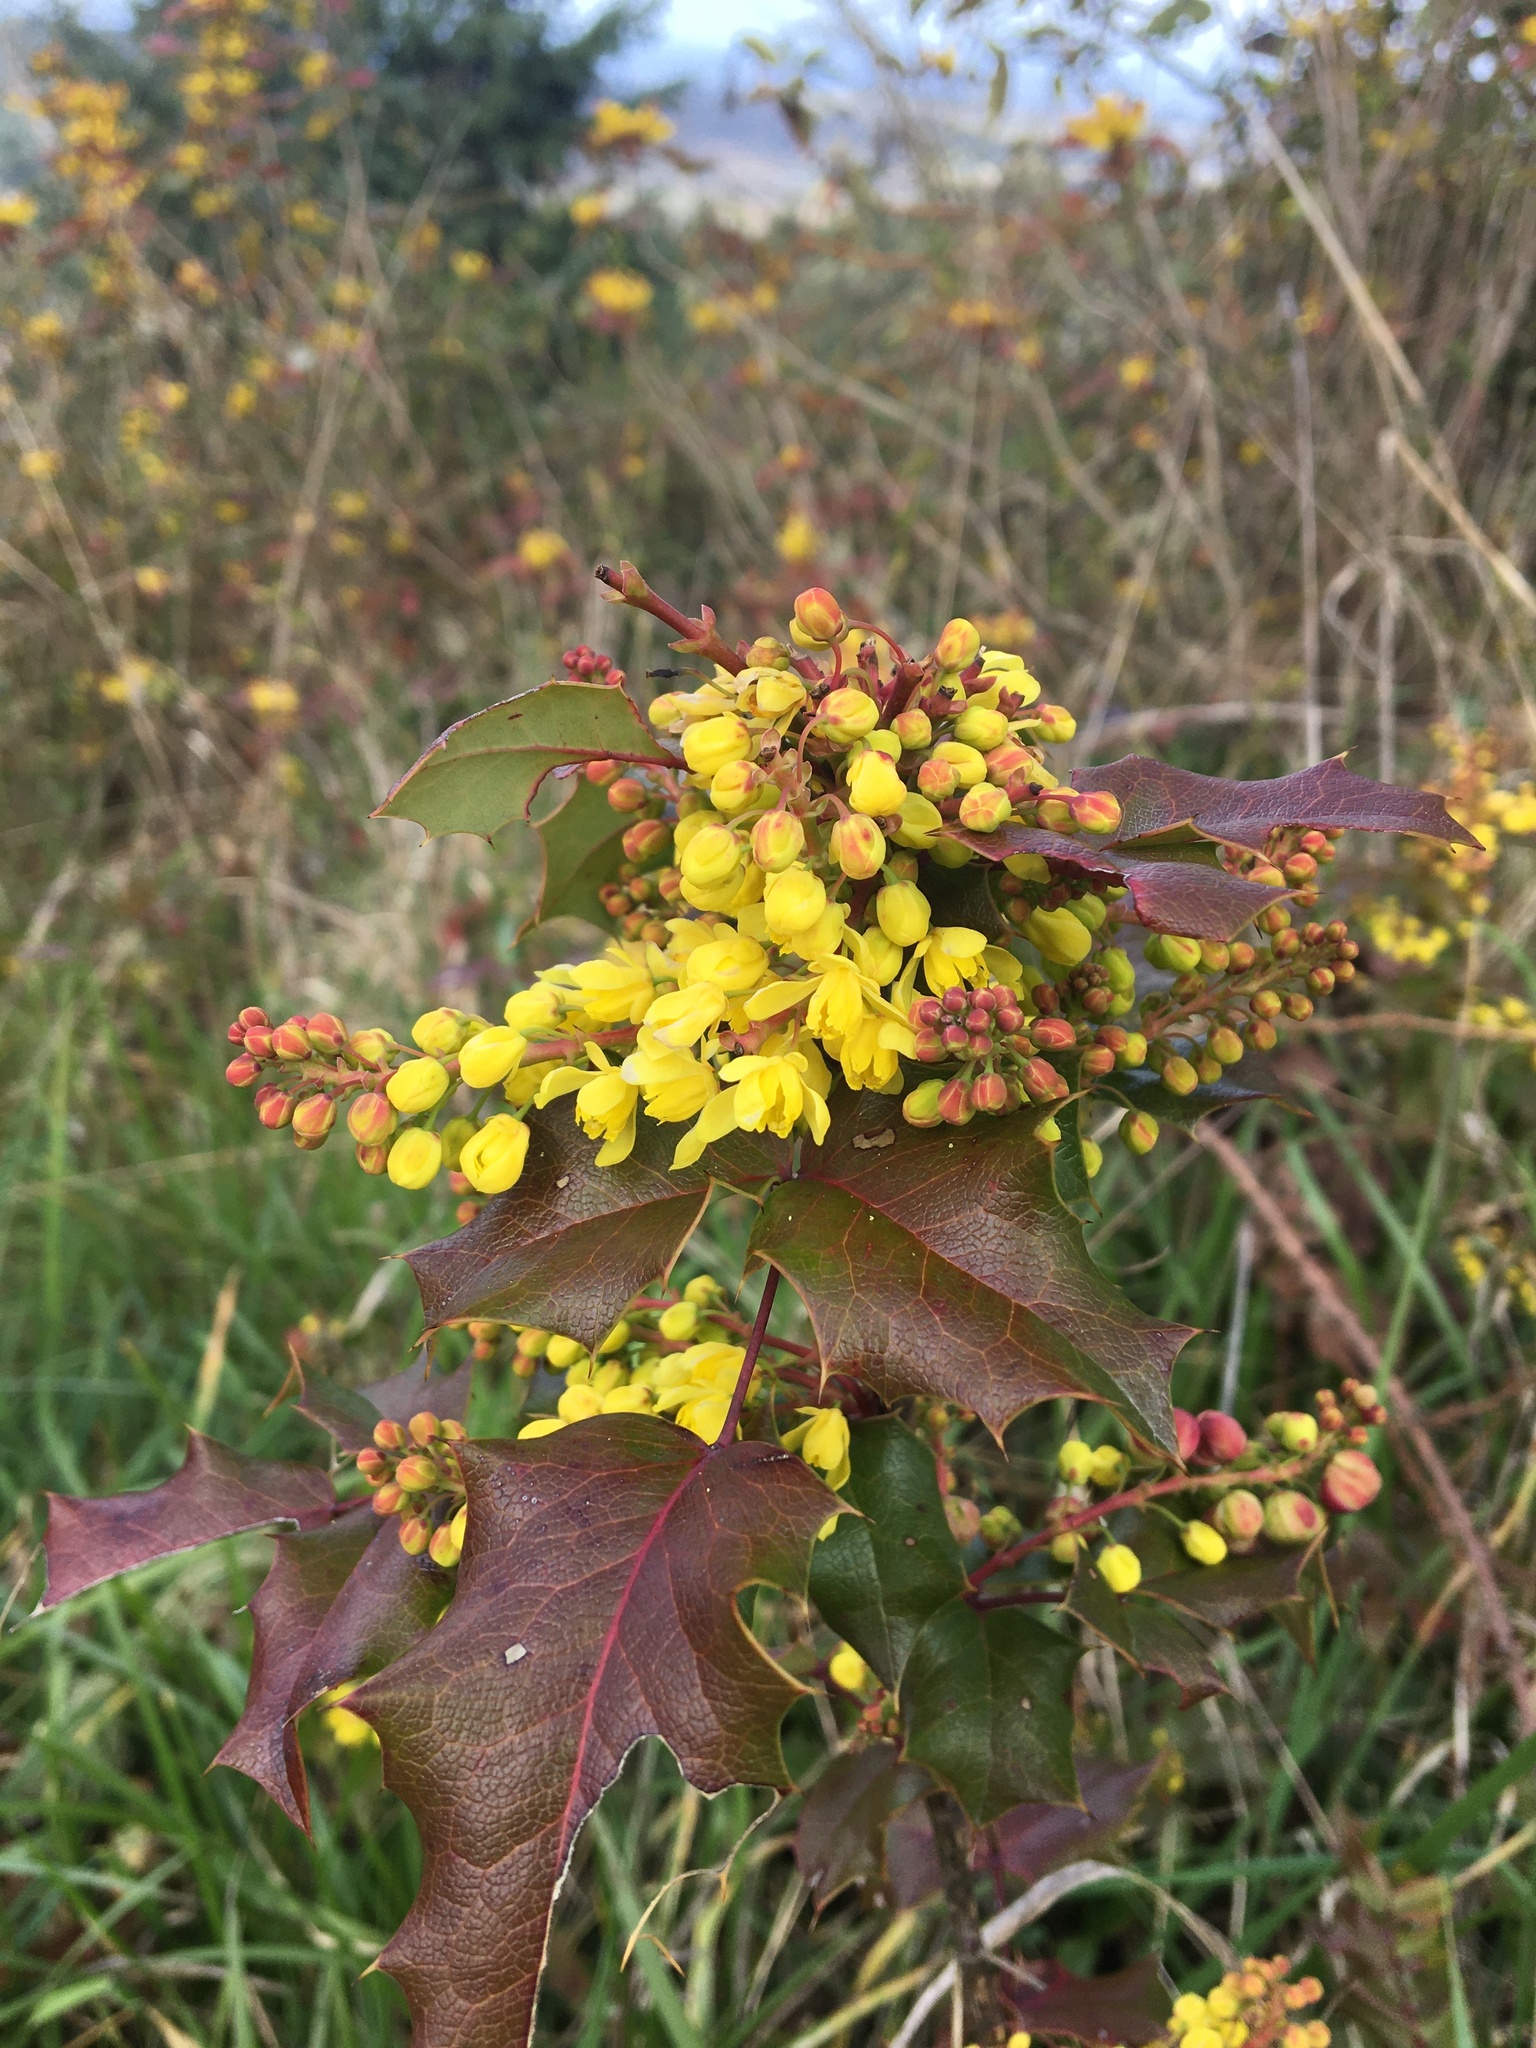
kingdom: Plantae
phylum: Tracheophyta
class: Magnoliopsida
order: Ranunculales
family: Berberidaceae
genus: Mahonia
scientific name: Mahonia aquifolium
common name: Oregon-grape
